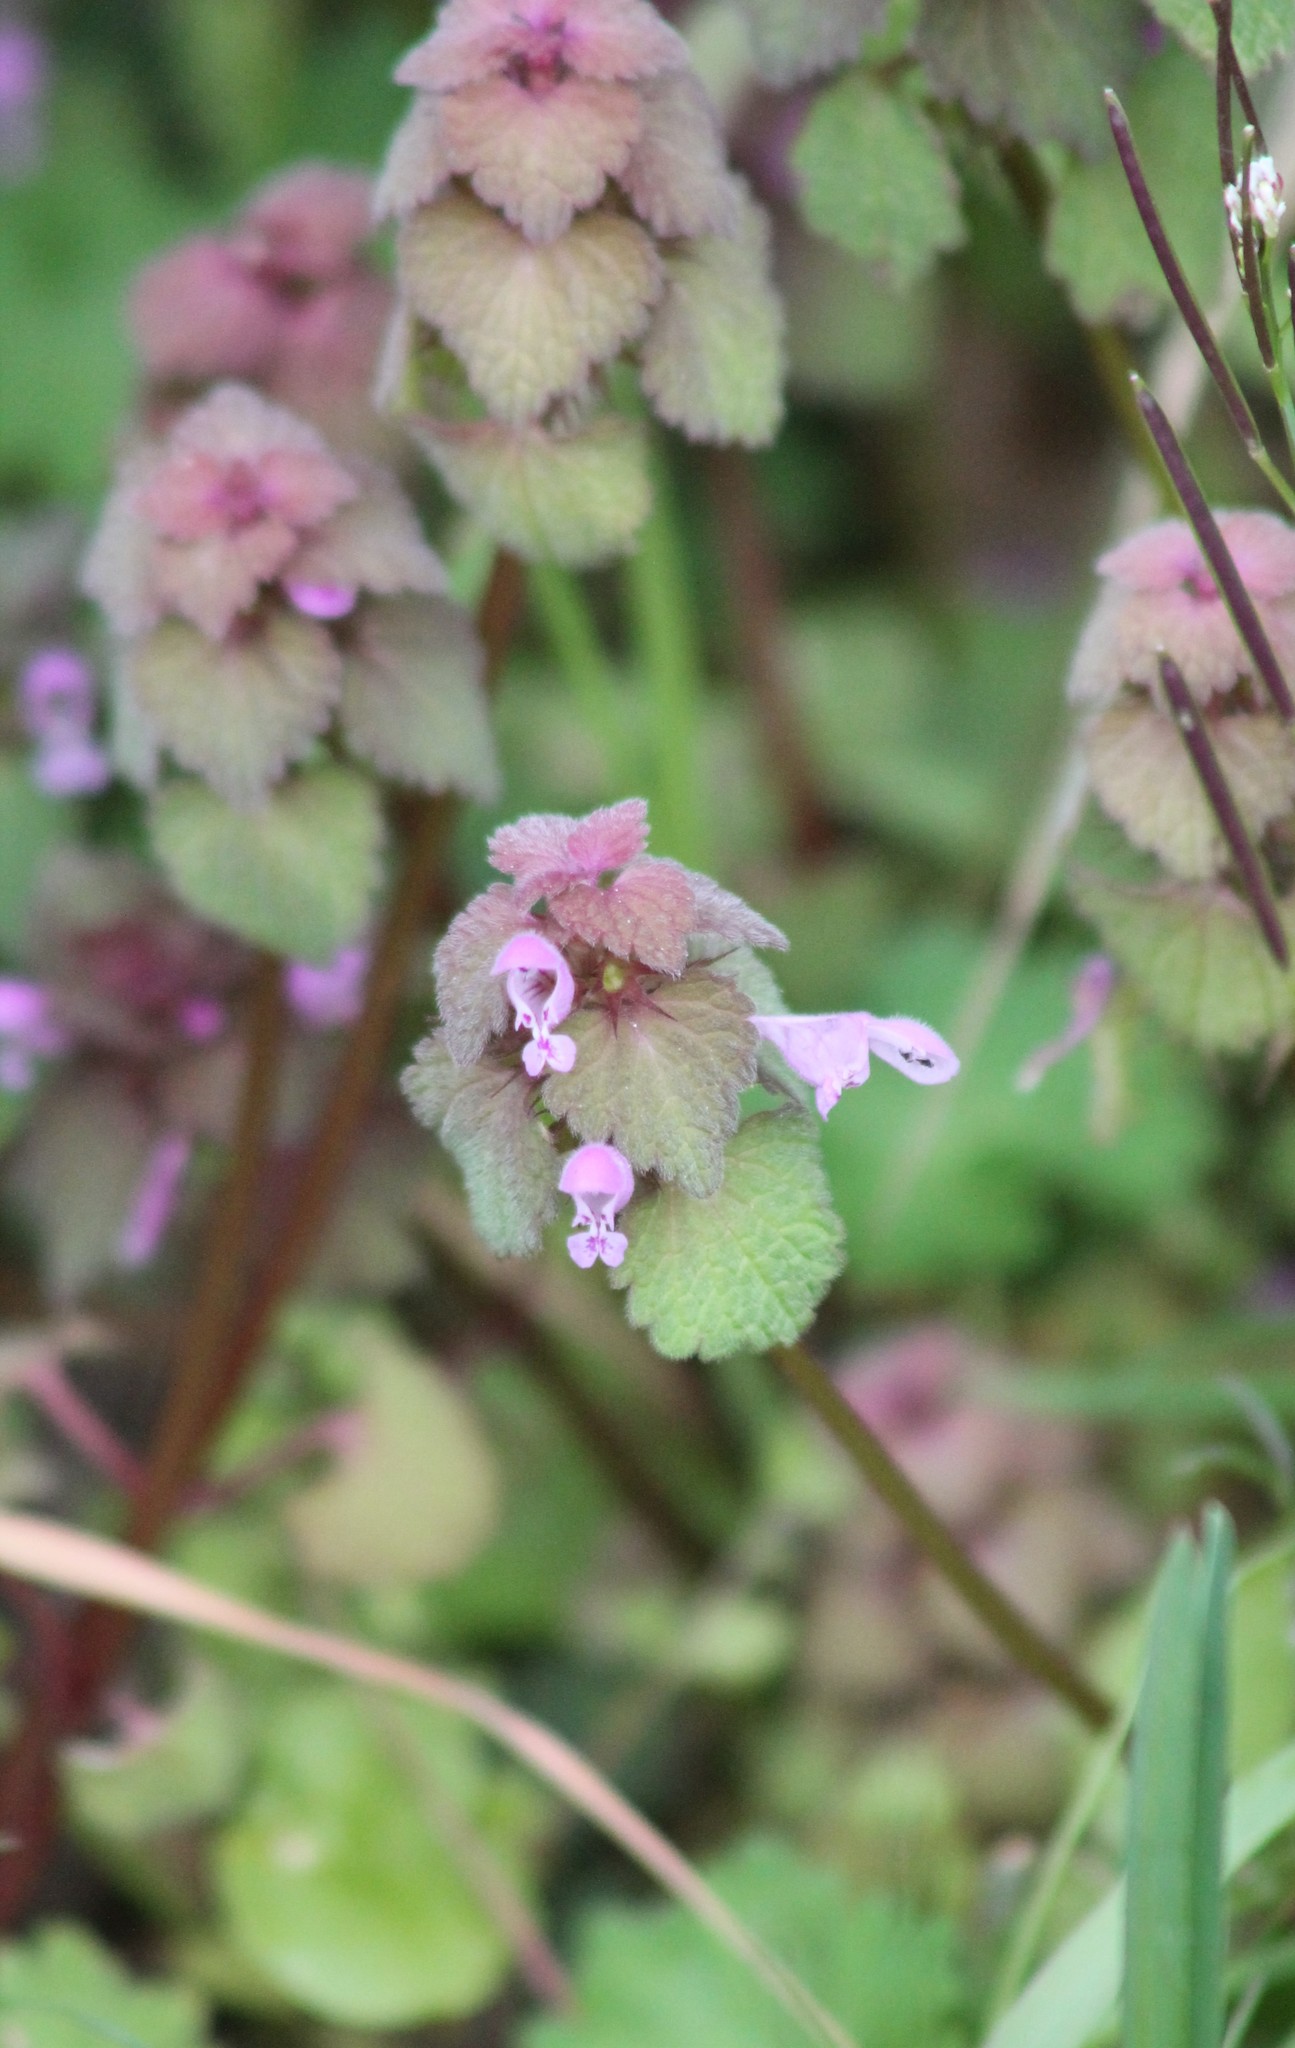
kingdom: Plantae
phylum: Tracheophyta
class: Magnoliopsida
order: Lamiales
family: Lamiaceae
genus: Lamium
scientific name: Lamium purpureum
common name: Red dead-nettle
